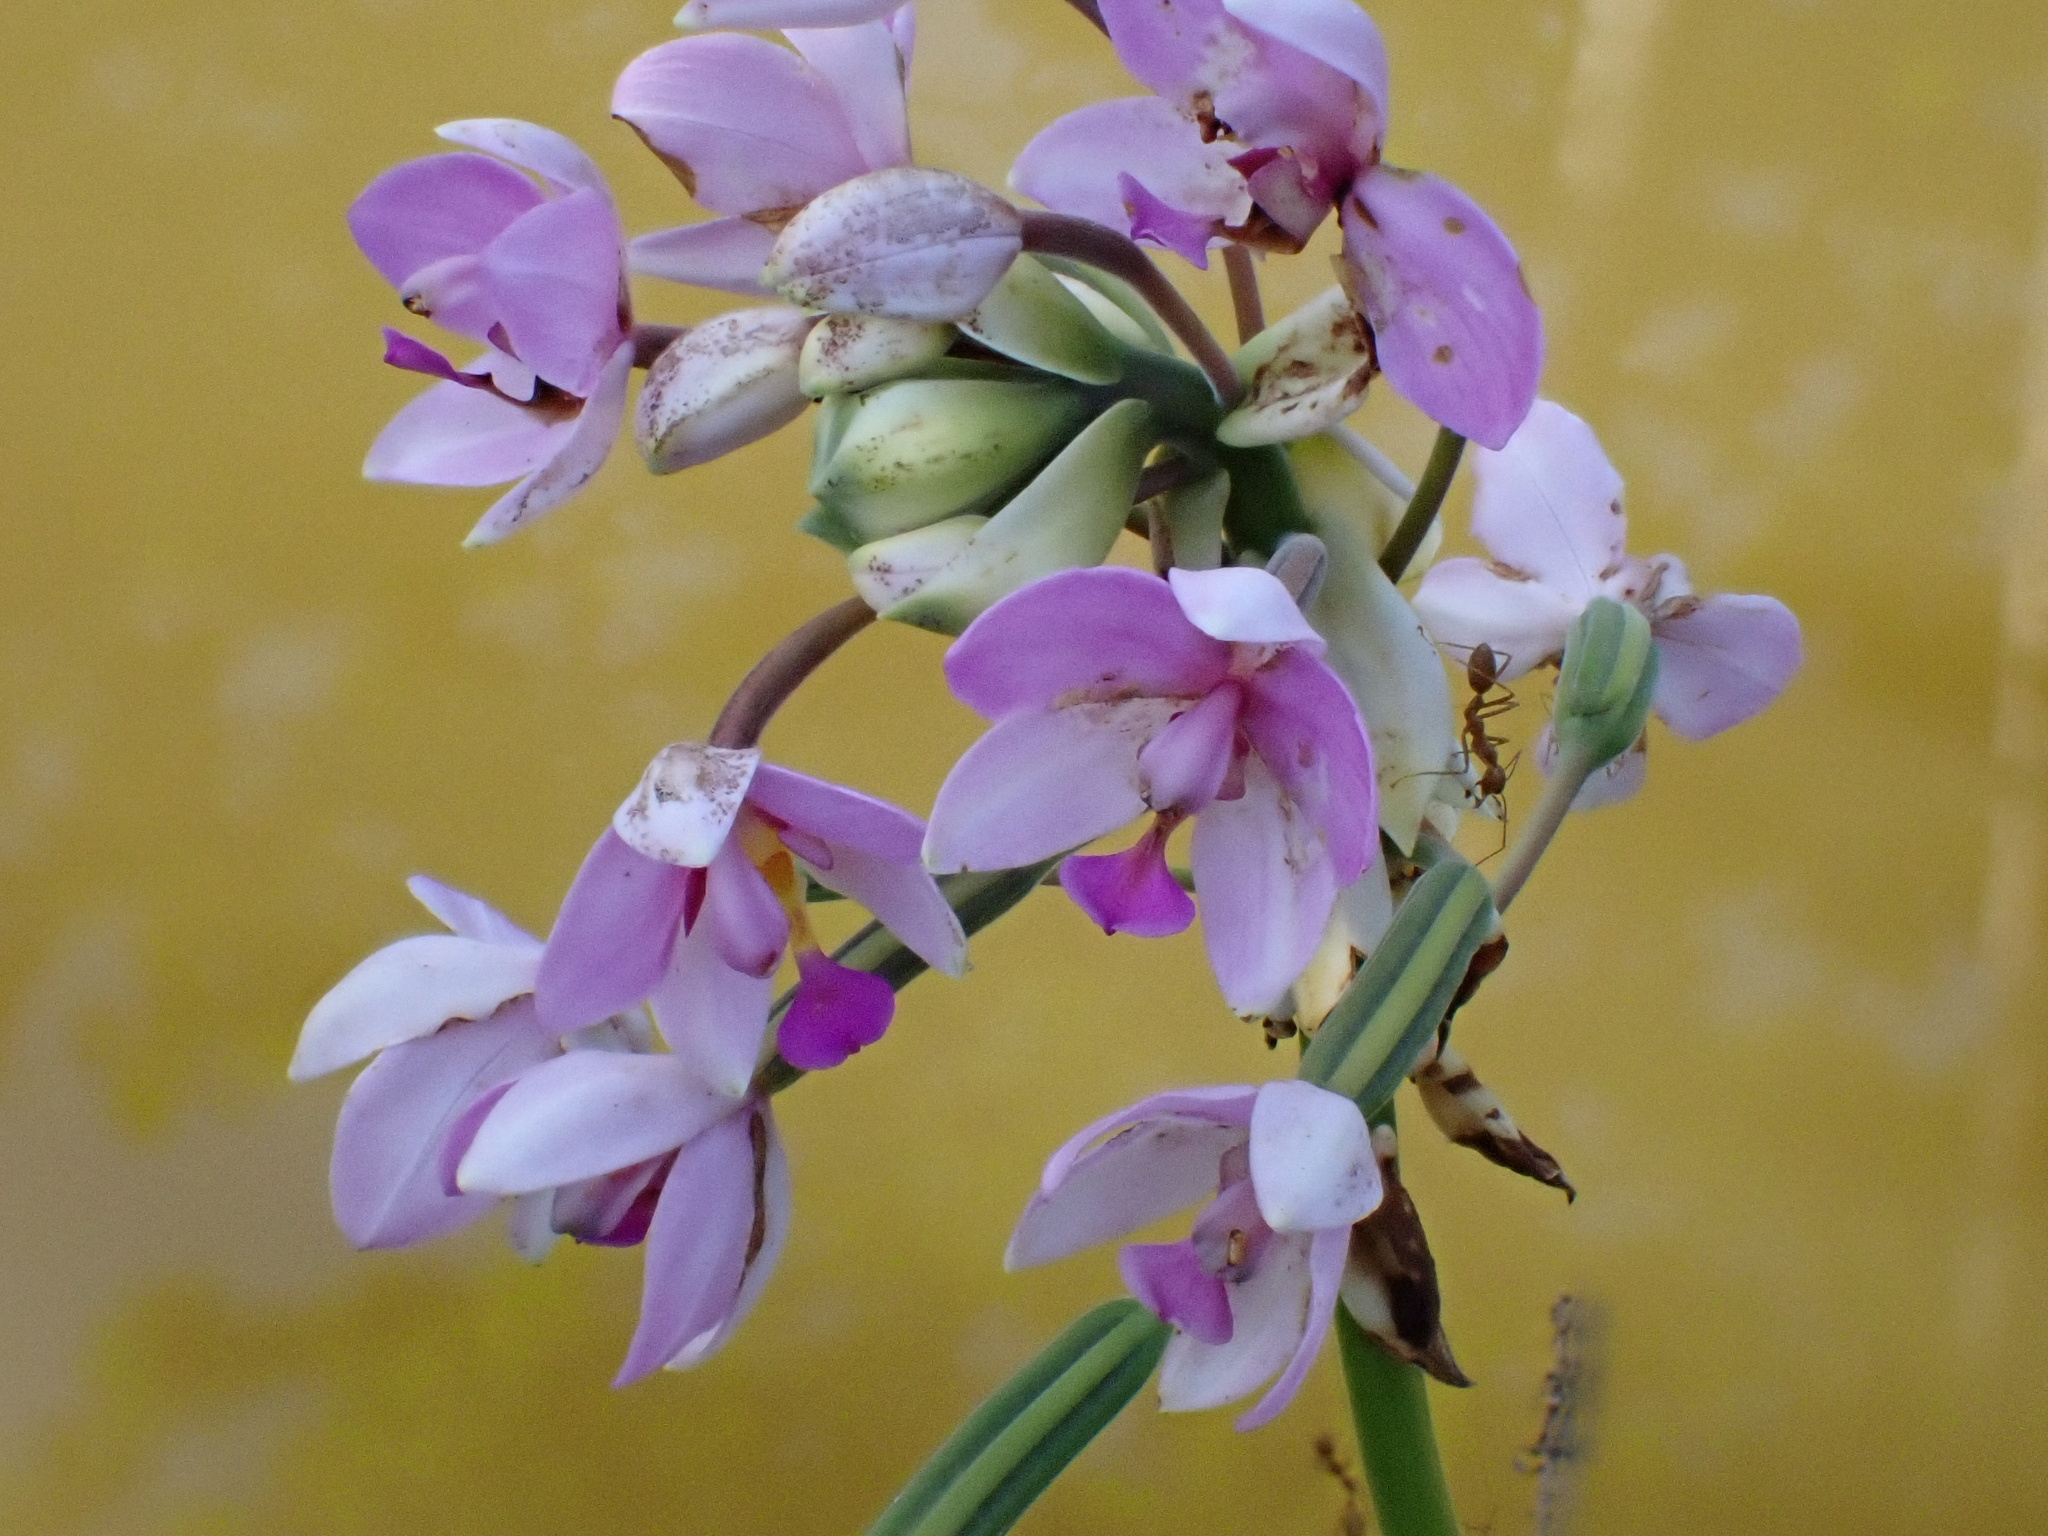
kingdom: Plantae
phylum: Tracheophyta
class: Liliopsida
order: Asparagales
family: Orchidaceae
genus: Spathoglottis
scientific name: Spathoglottis plicata
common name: Philippine ground orchid
